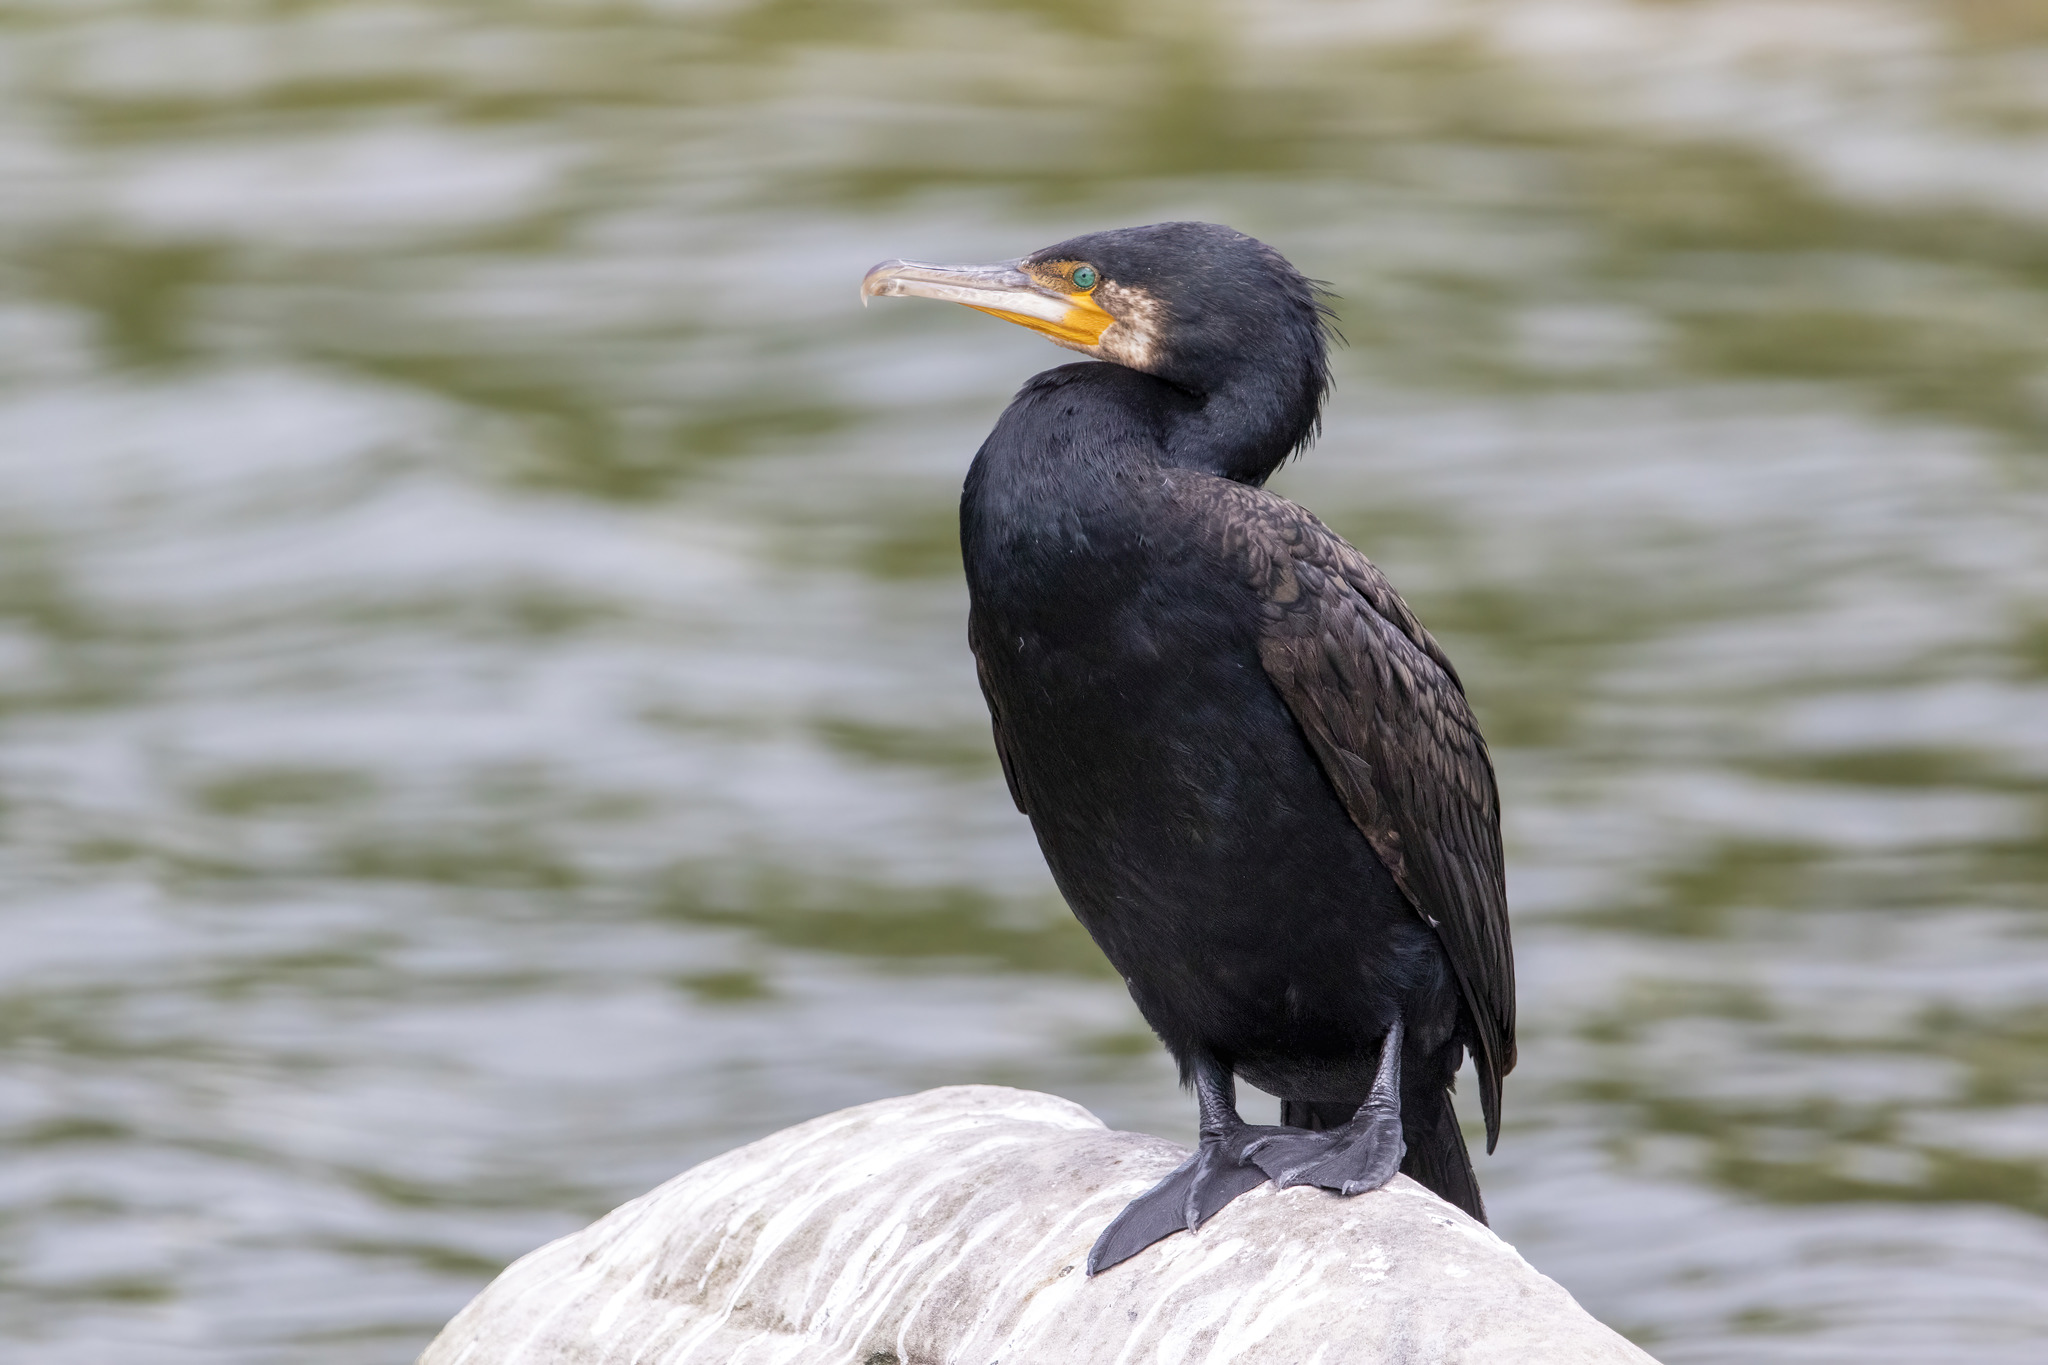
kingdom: Animalia
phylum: Chordata
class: Aves
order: Suliformes
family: Phalacrocoracidae
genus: Phalacrocorax
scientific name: Phalacrocorax carbo
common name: Great cormorant
